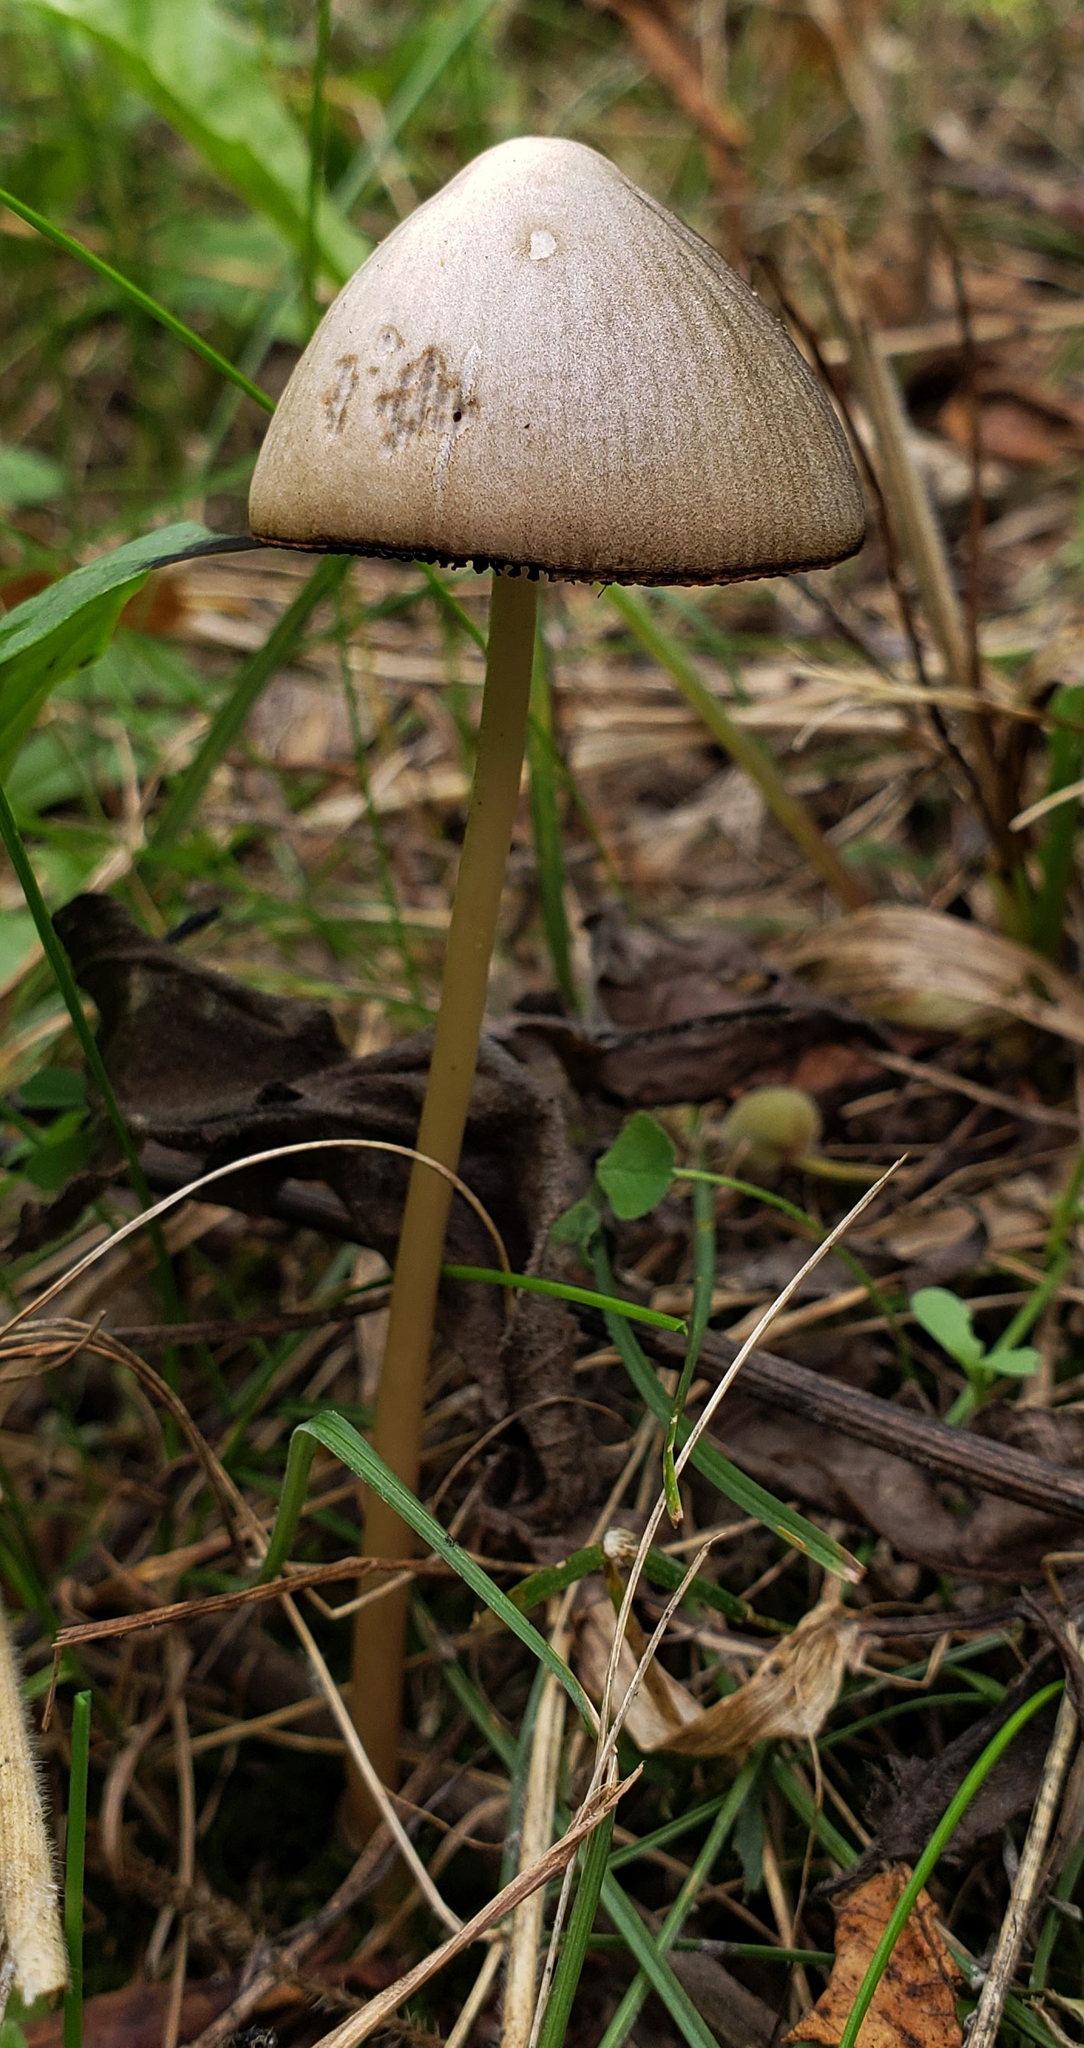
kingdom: Fungi
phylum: Basidiomycota
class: Agaricomycetes
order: Agaricales
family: Bolbitiaceae
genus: Panaeolus
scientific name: Panaeolus papilionaceus
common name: Petticoat mottlegill
